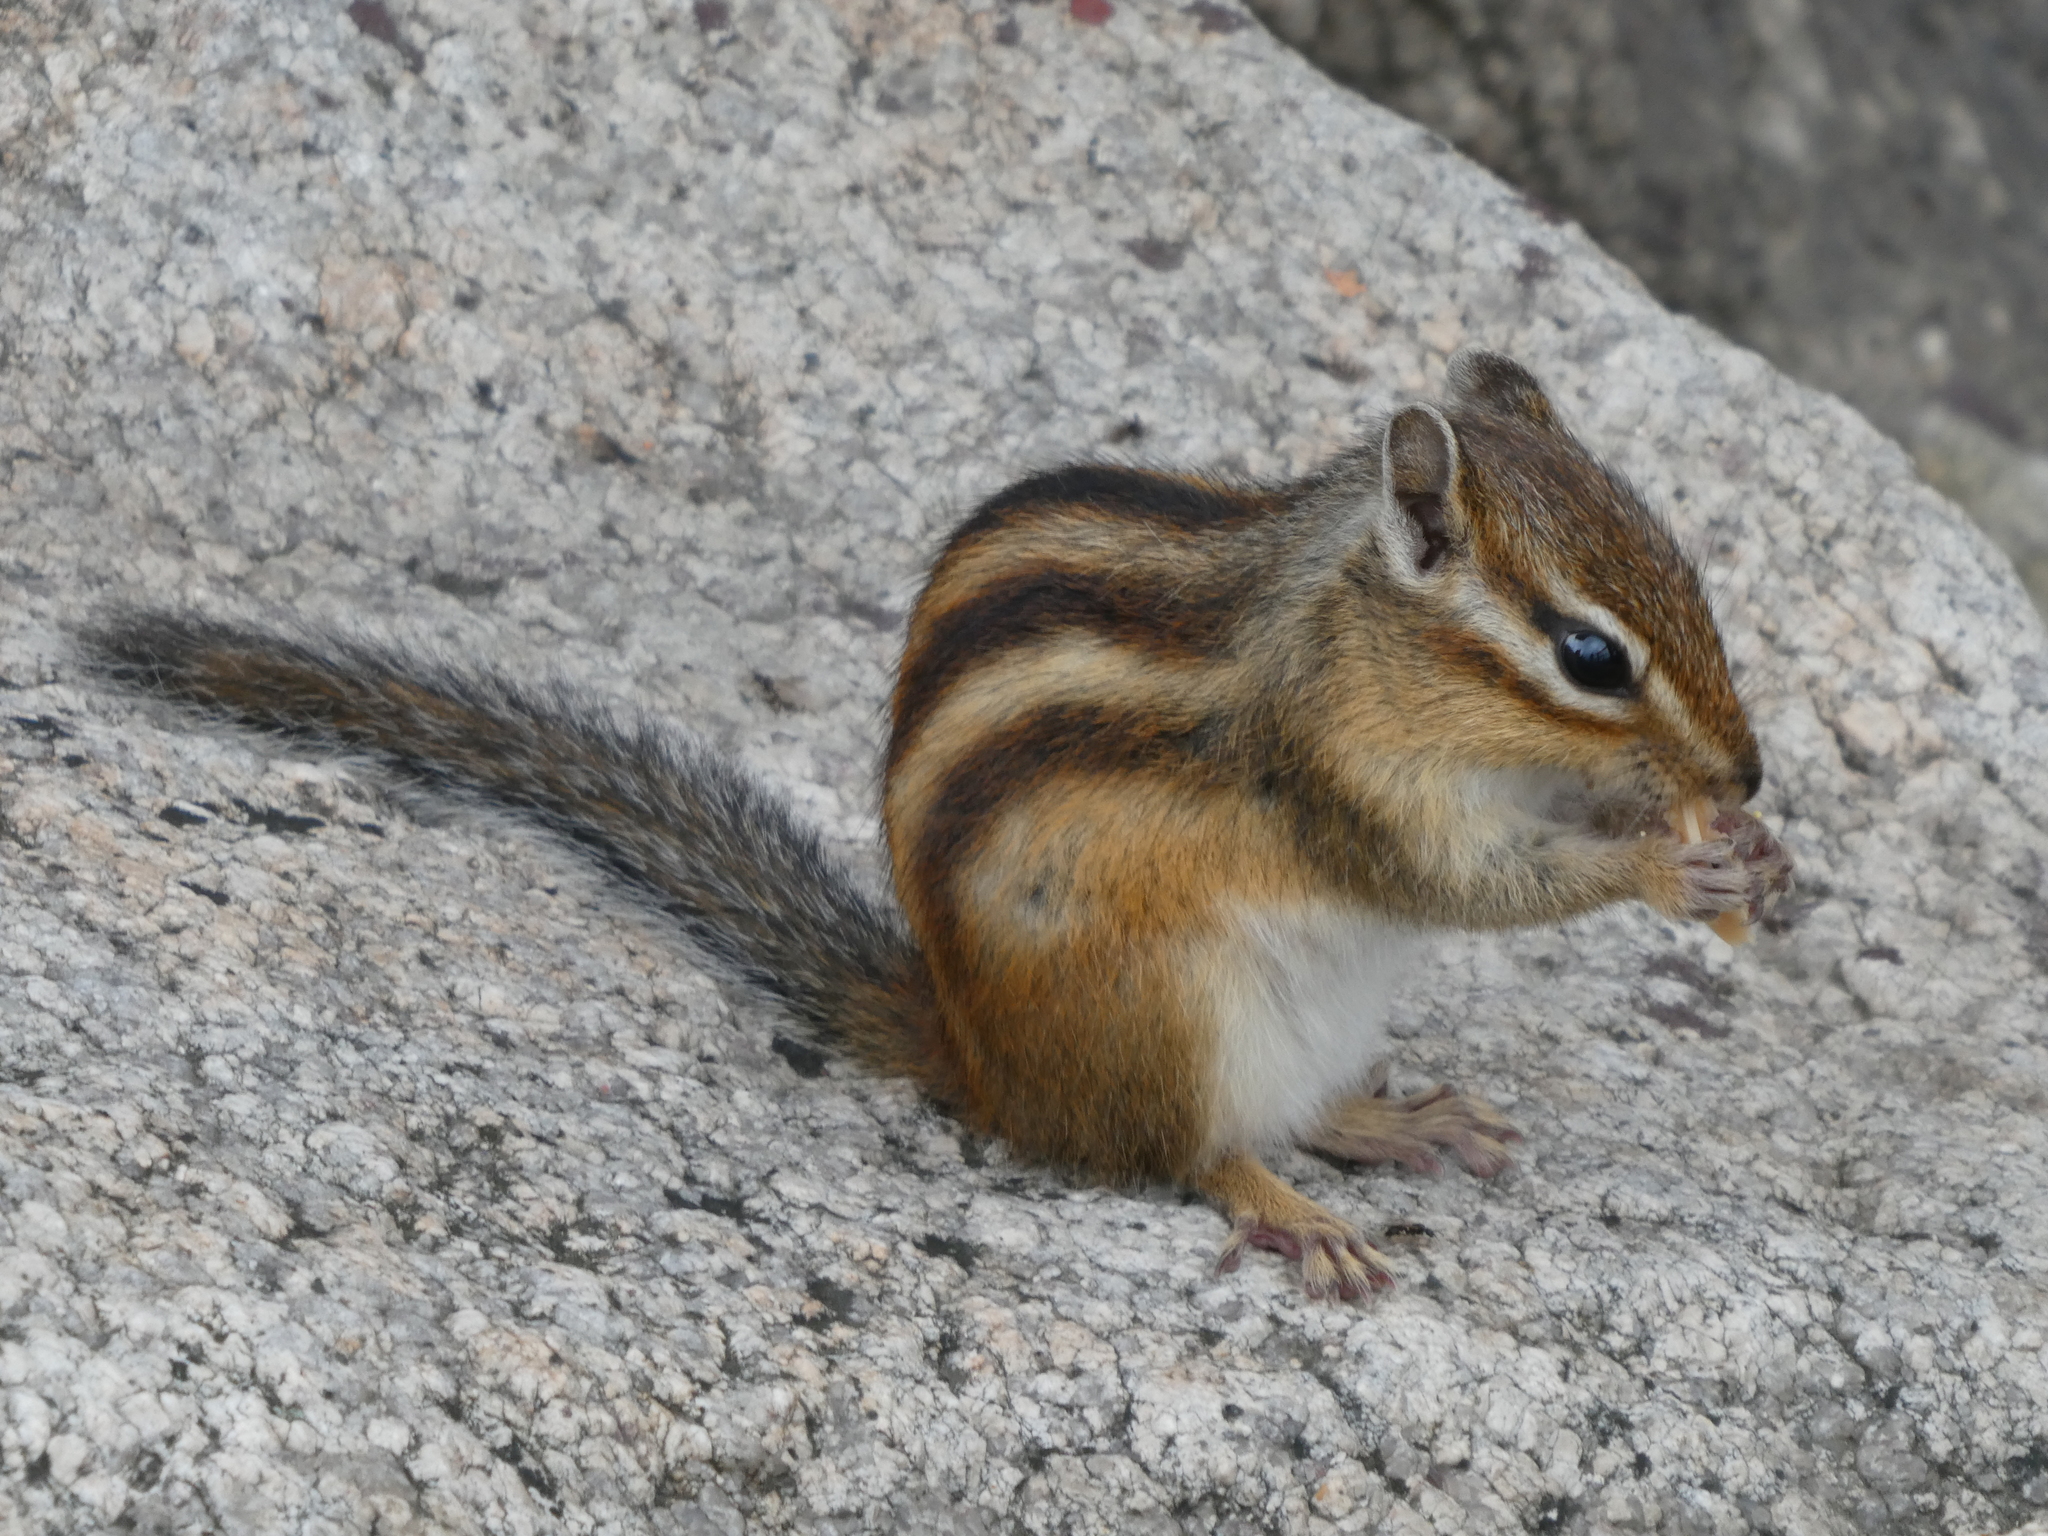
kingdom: Animalia
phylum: Chordata
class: Mammalia
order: Rodentia
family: Sciuridae
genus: Tamias
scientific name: Tamias sibiricus
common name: Siberian chipmunk
